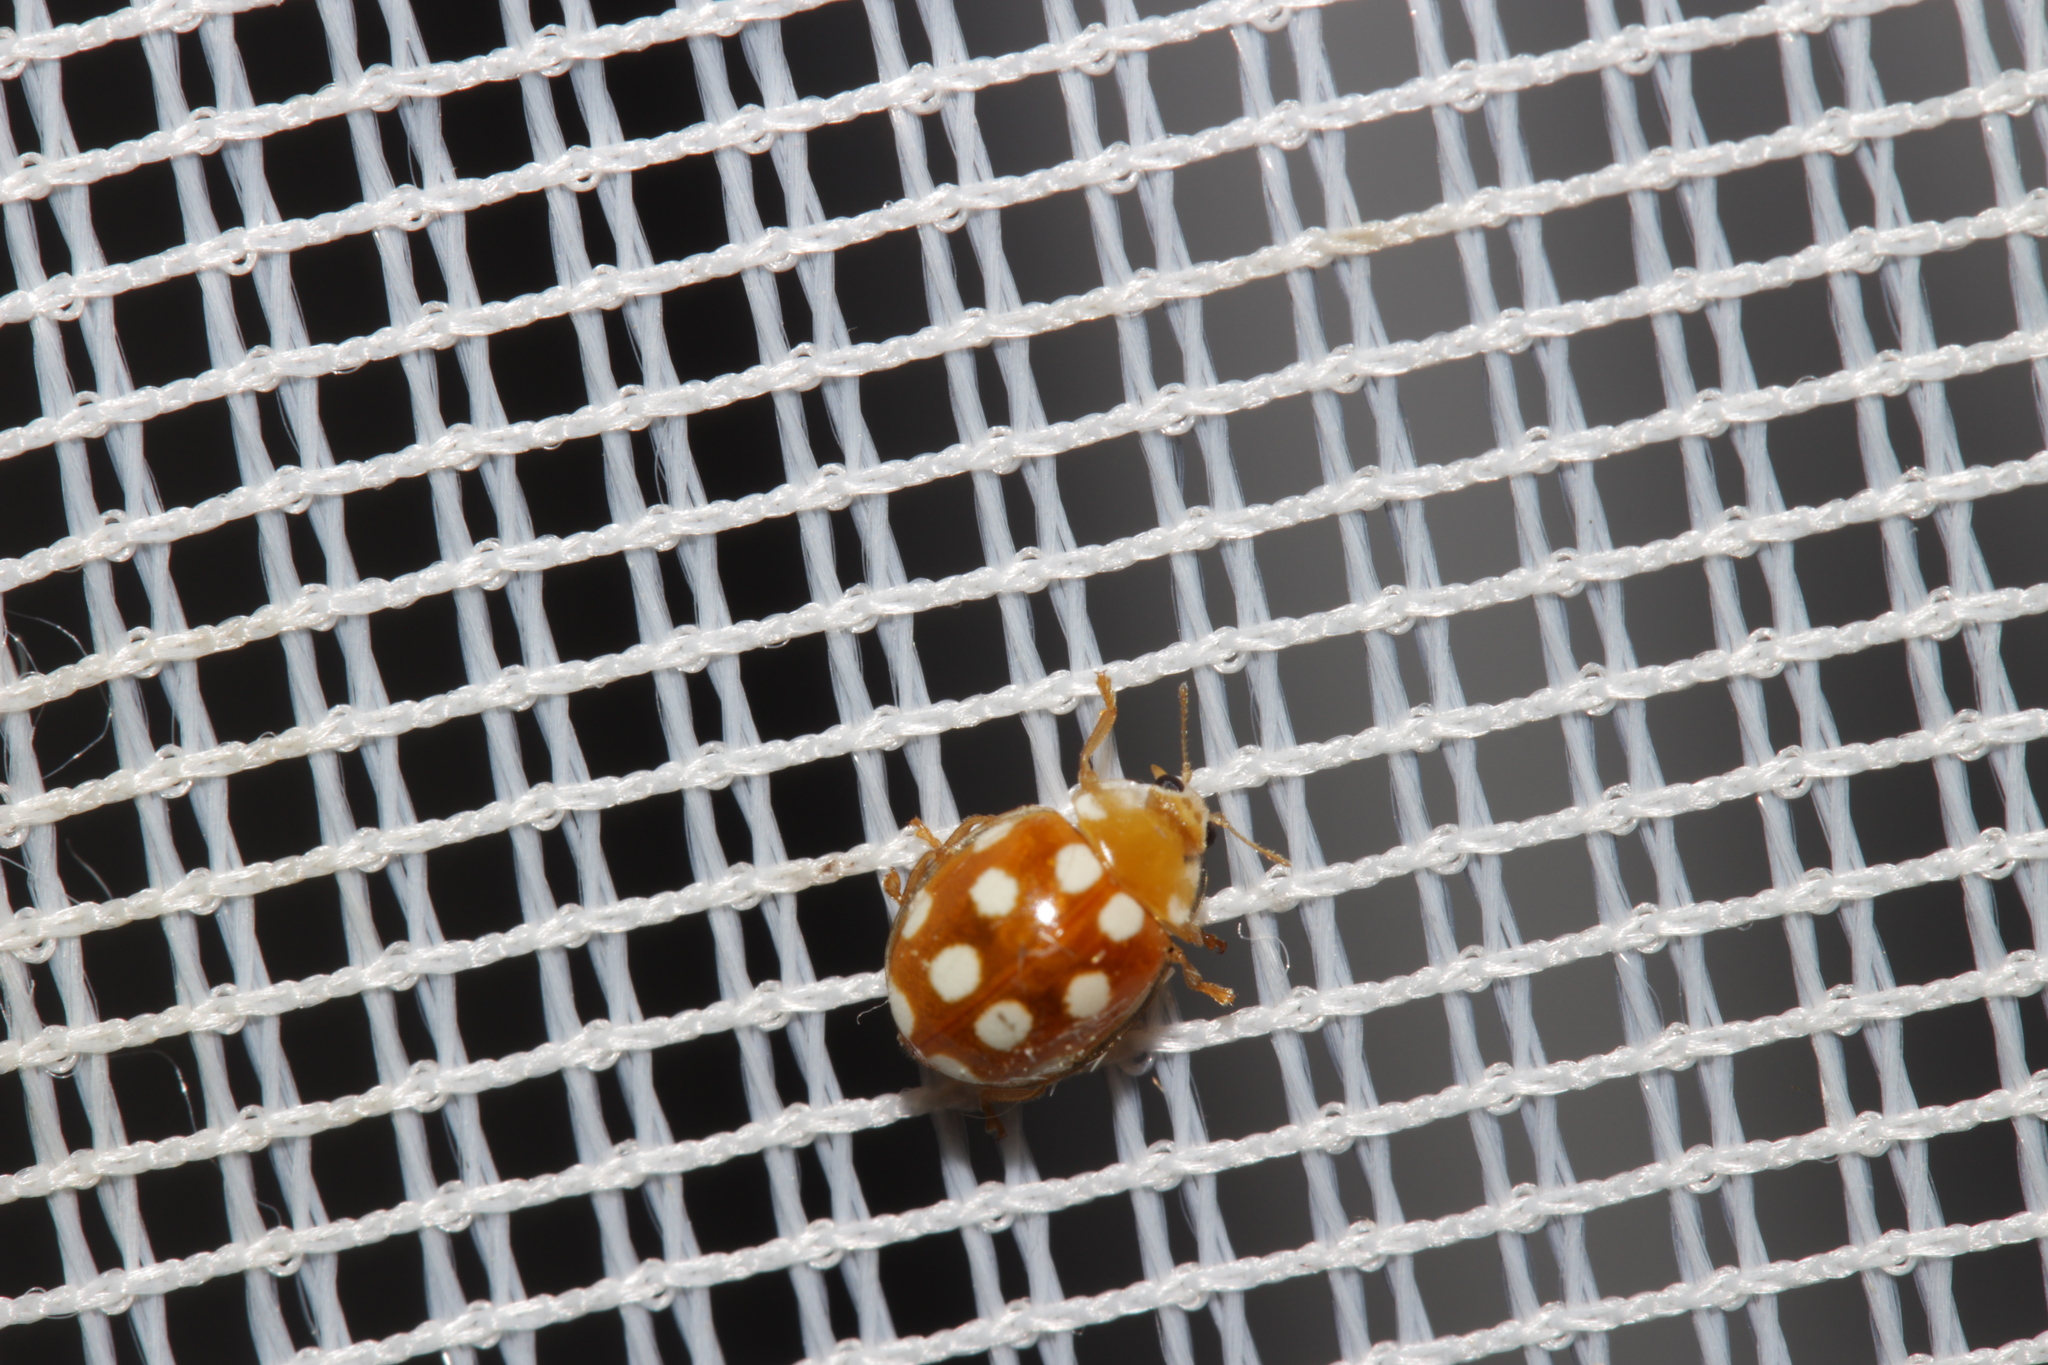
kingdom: Animalia
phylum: Arthropoda
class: Insecta
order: Coleoptera
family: Coccinellidae
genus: Vibidia
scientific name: Vibidia duodecimguttata
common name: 12-spot ladybird
